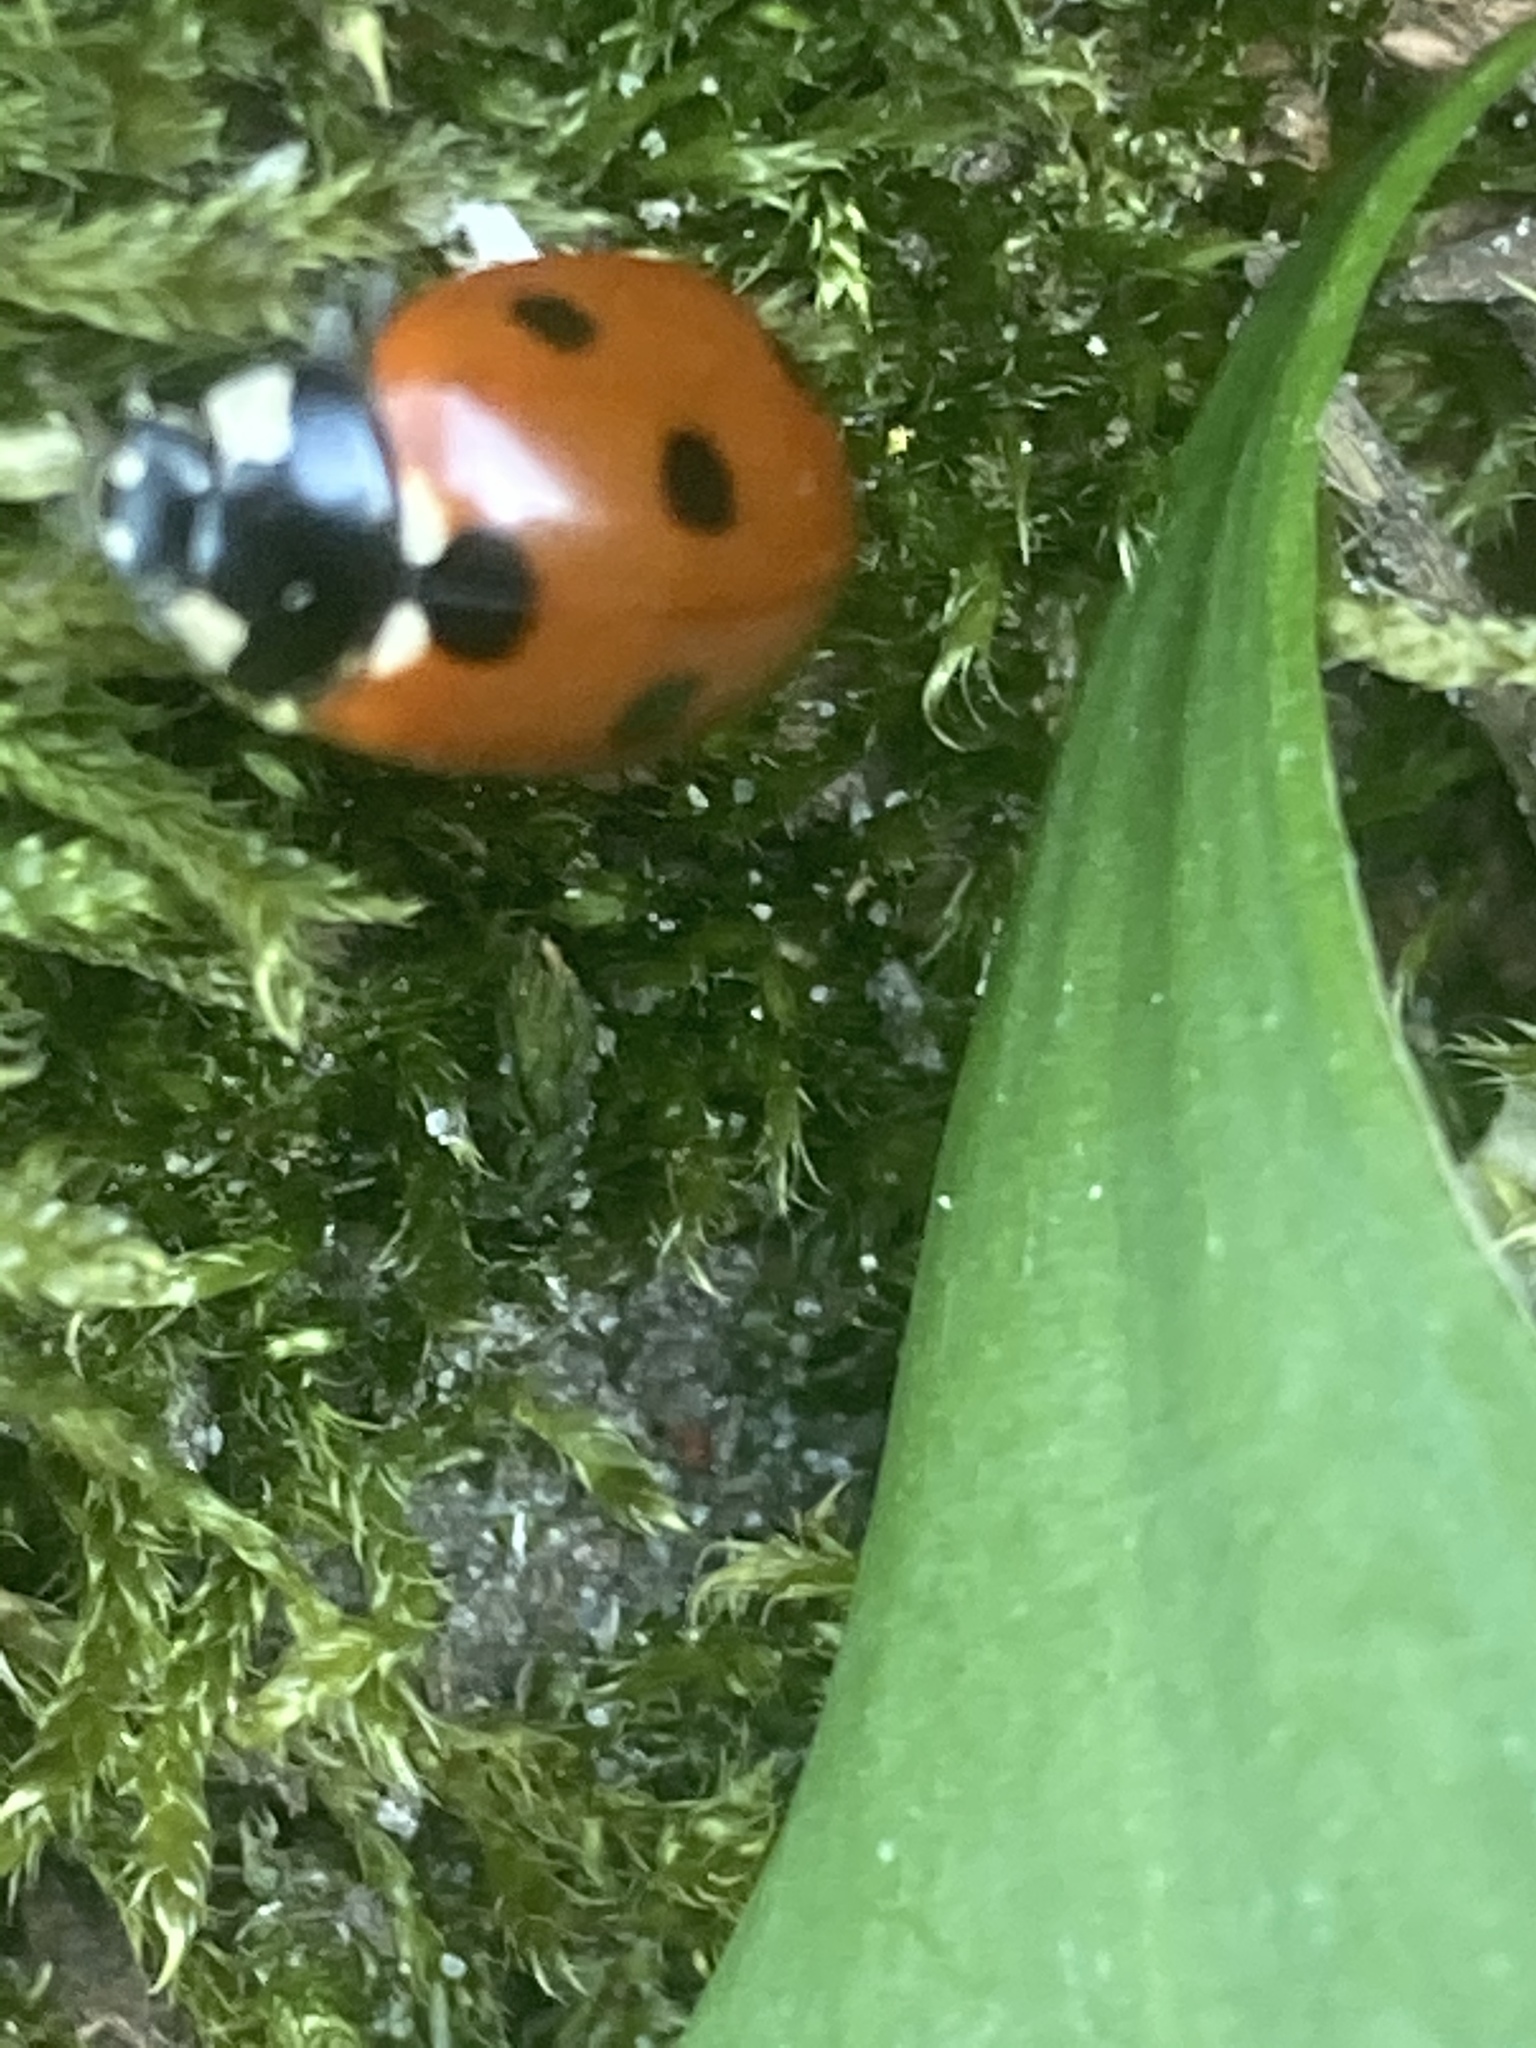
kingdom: Animalia
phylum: Arthropoda
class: Insecta
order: Coleoptera
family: Coccinellidae
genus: Coccinella
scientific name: Coccinella septempunctata
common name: Sevenspotted lady beetle
